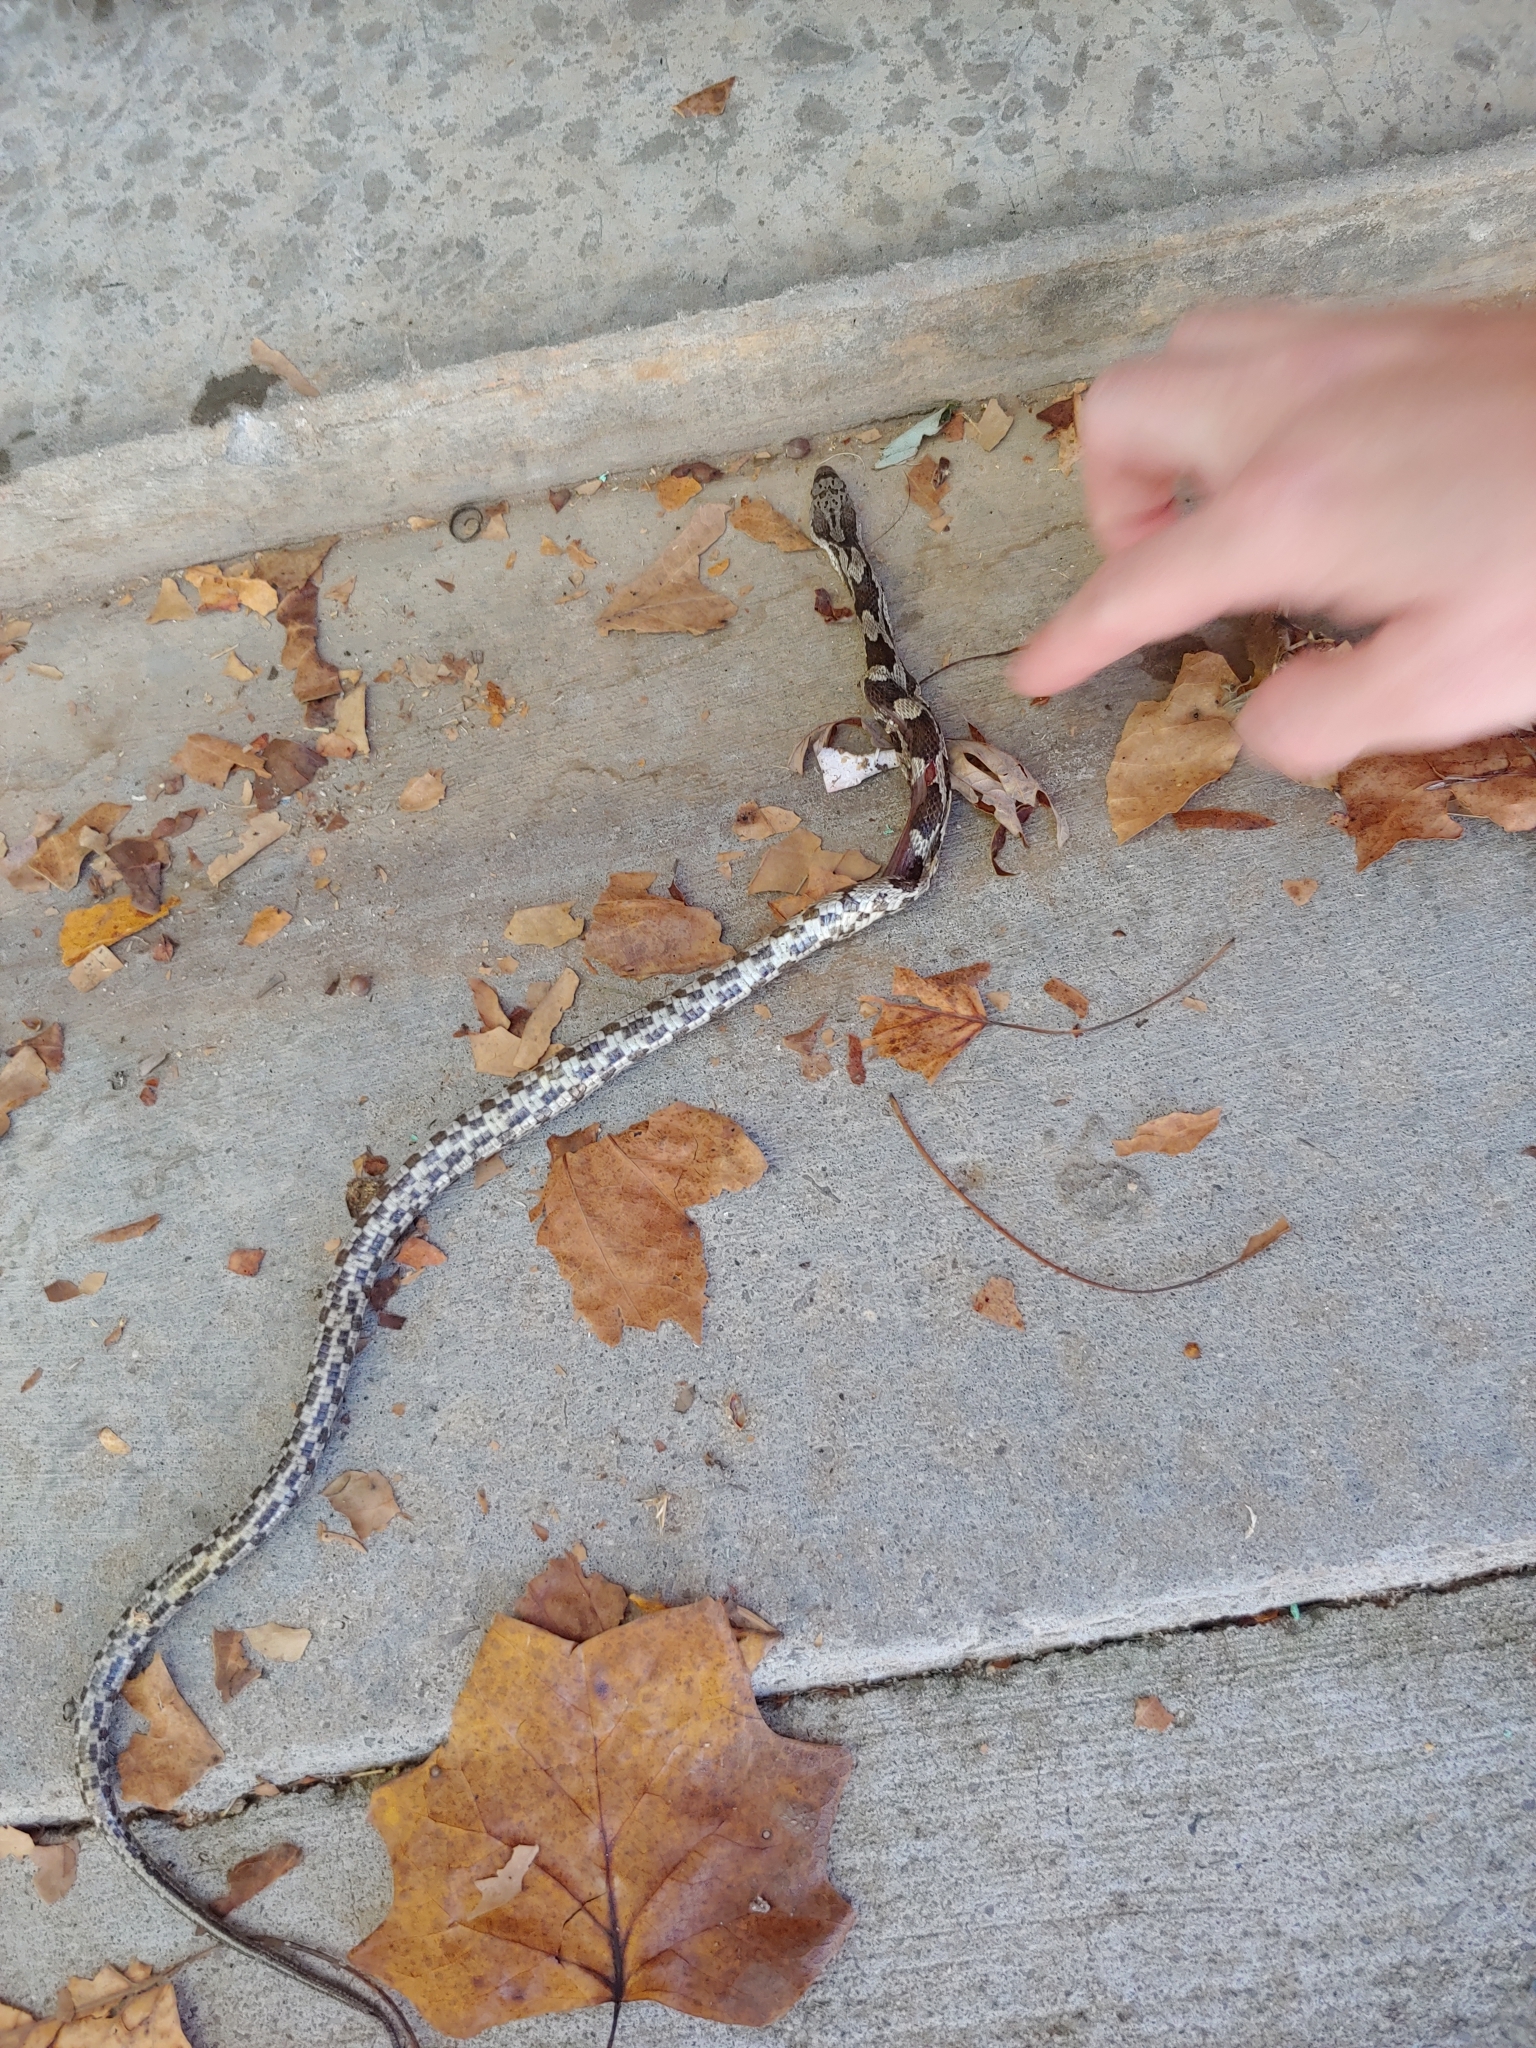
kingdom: Animalia
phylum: Chordata
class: Squamata
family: Colubridae
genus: Pantherophis
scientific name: Pantherophis spiloides
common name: Gray rat snake
